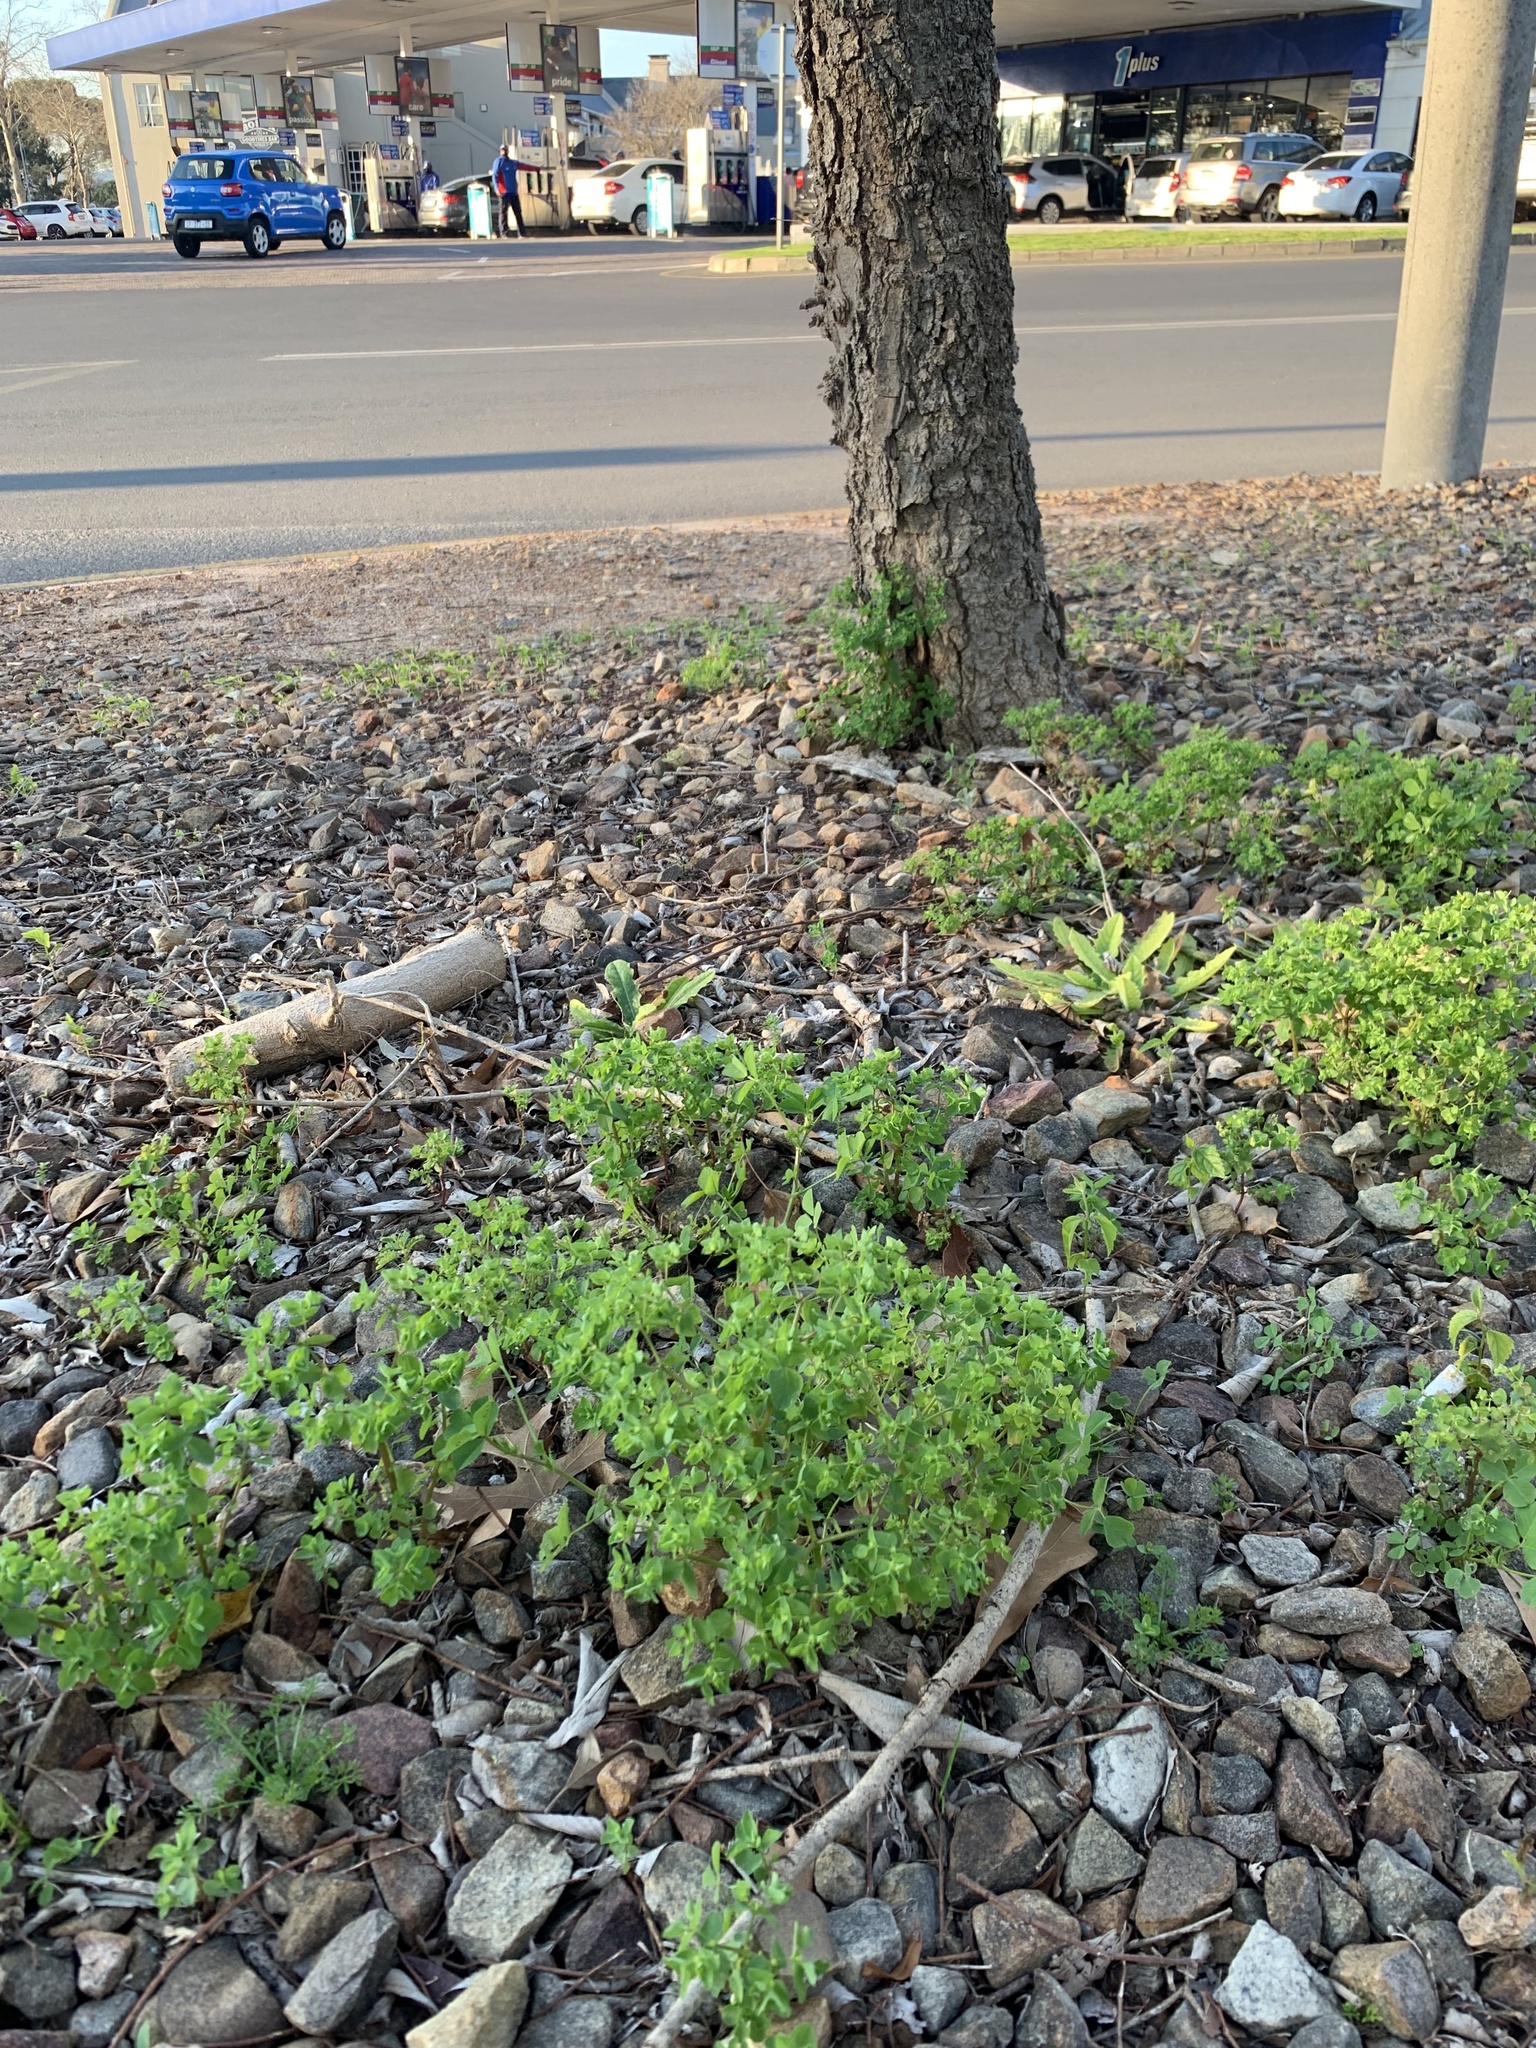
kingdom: Plantae
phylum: Tracheophyta
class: Magnoliopsida
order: Malpighiales
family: Euphorbiaceae
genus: Euphorbia
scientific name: Euphorbia peplus
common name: Petty spurge
